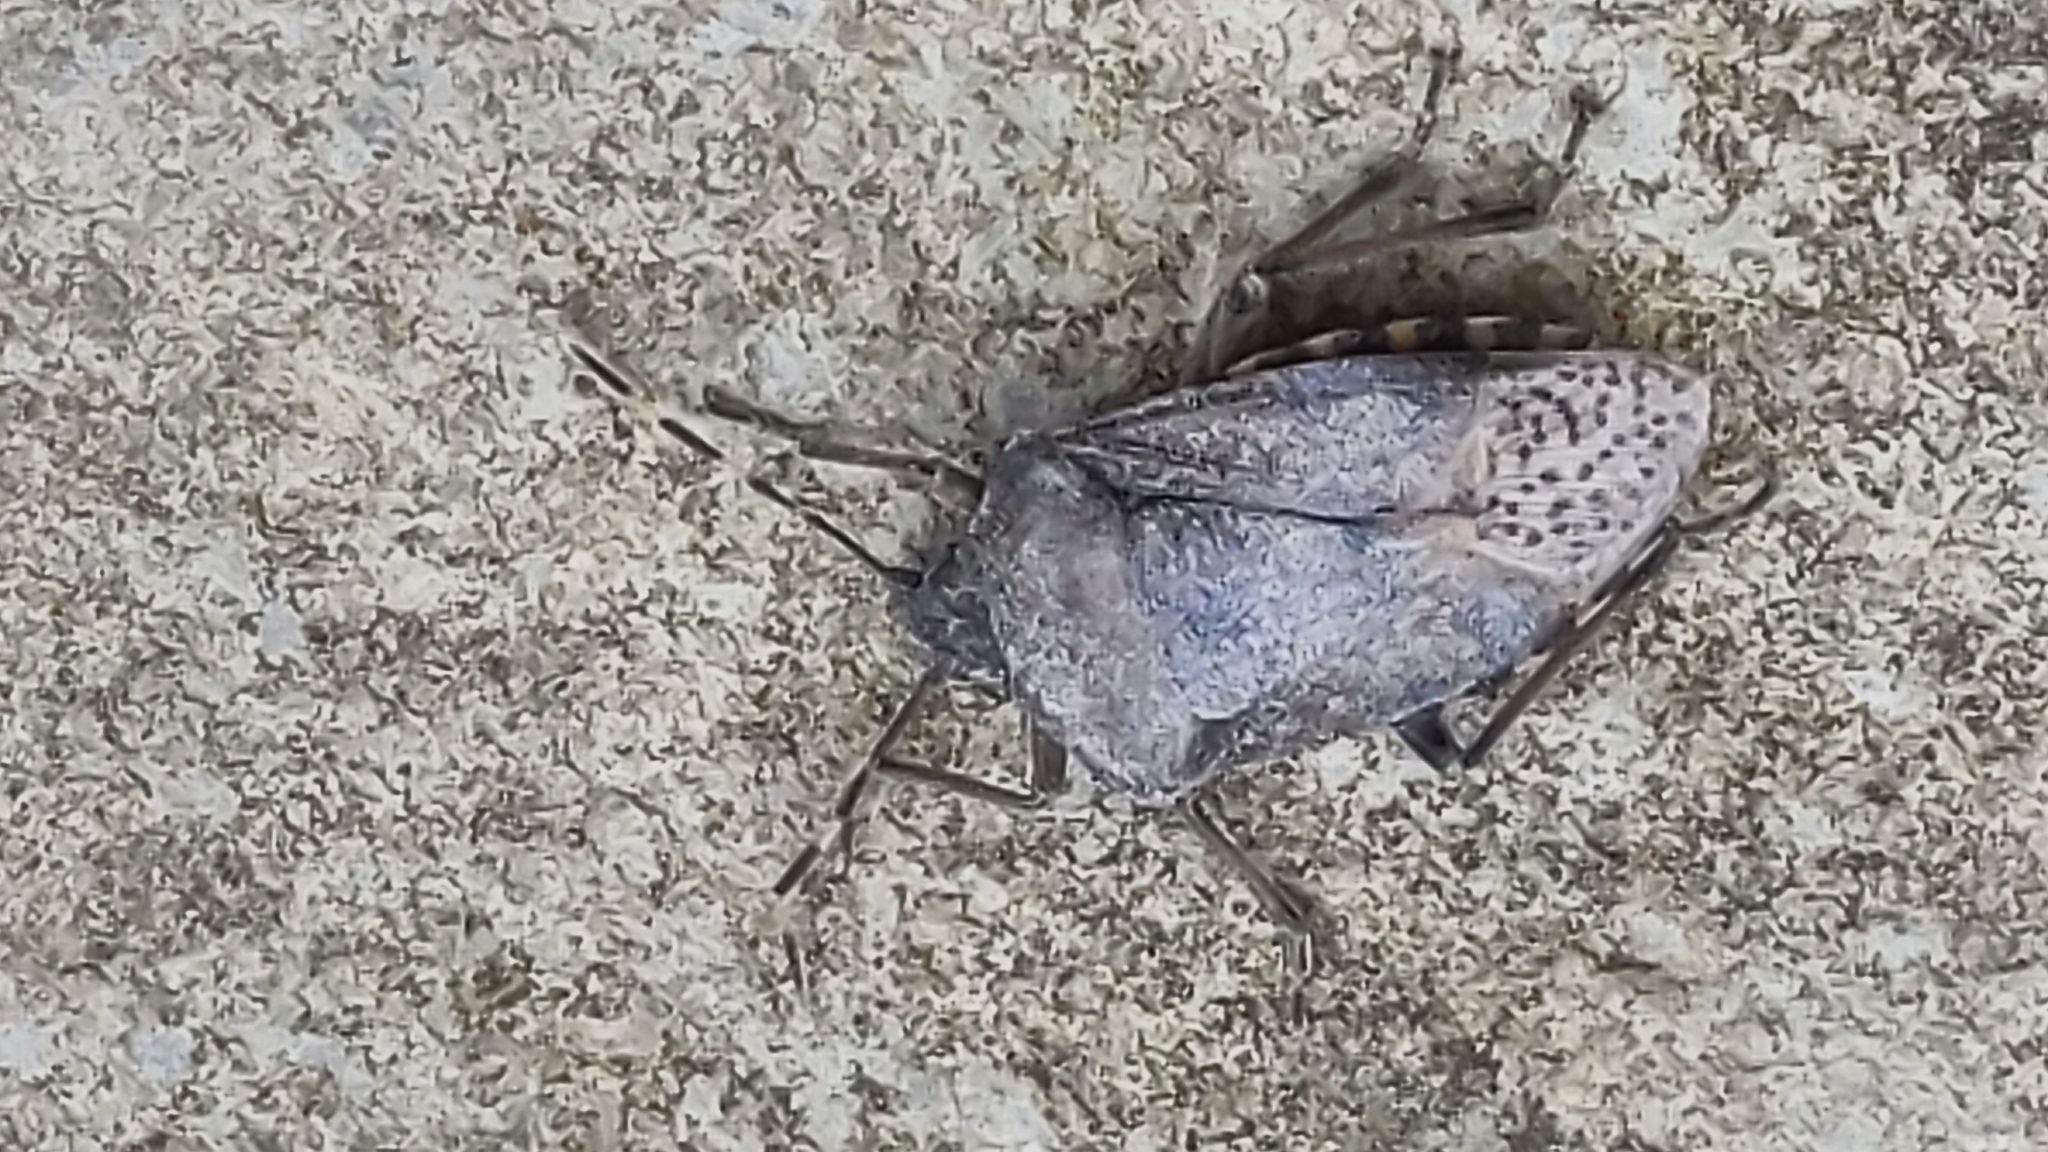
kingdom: Animalia
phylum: Arthropoda
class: Insecta
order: Hemiptera
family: Pentatomidae
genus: Rhaphigaster
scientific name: Rhaphigaster nebulosa
